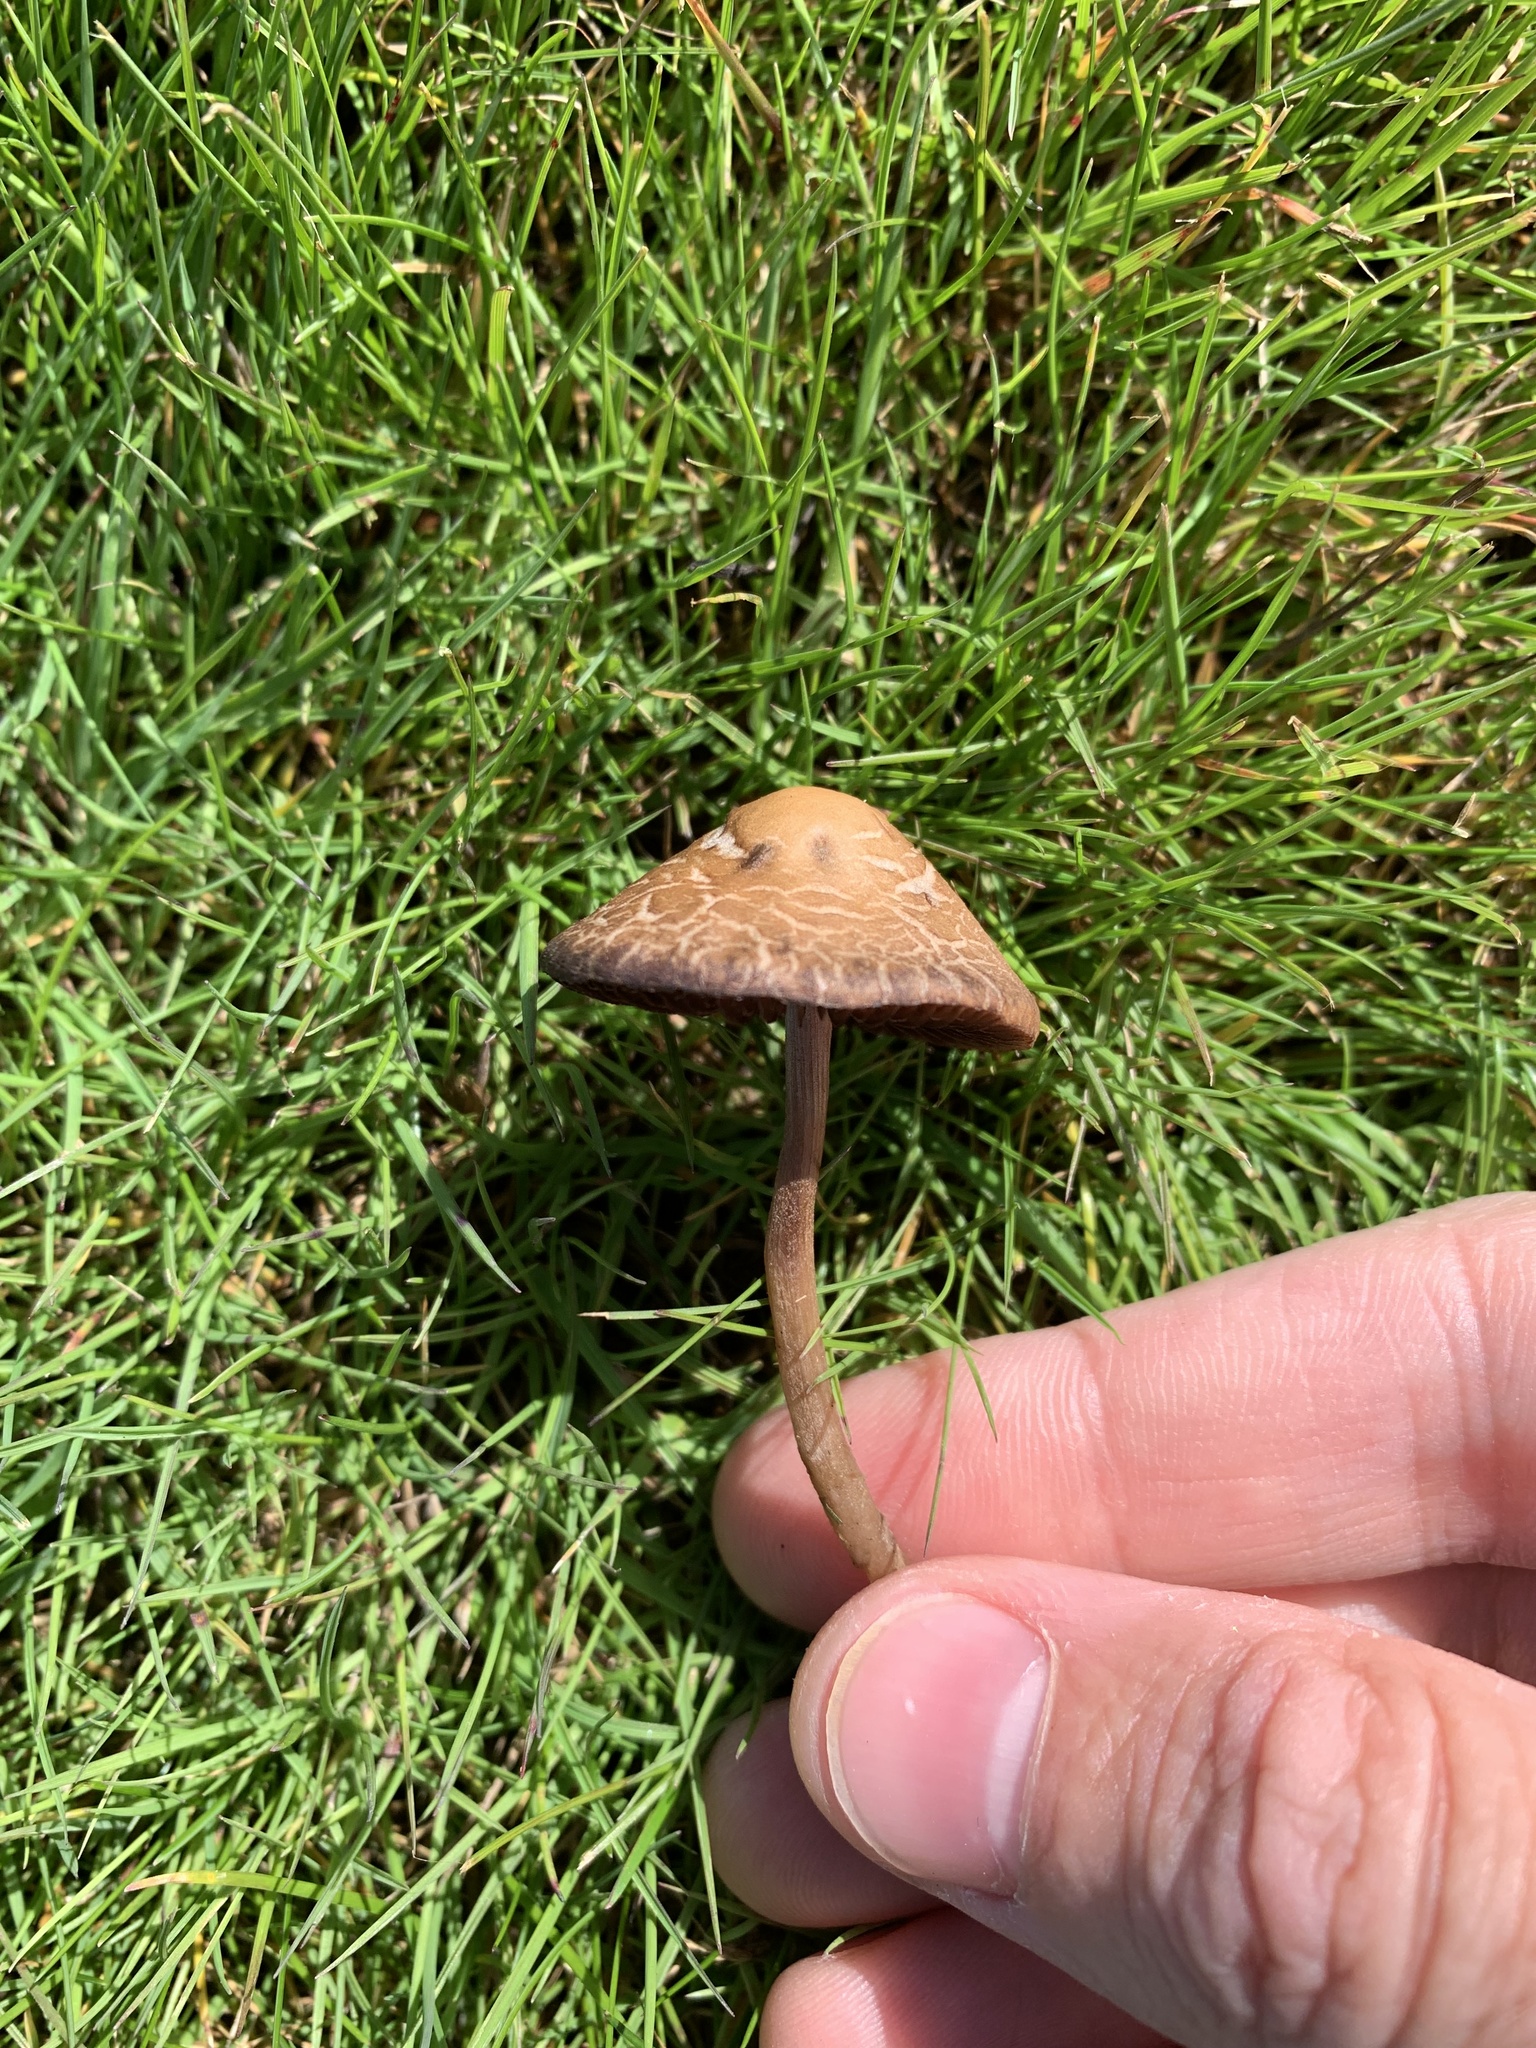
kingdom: Fungi
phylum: Basidiomycota
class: Agaricomycetes
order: Agaricales
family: Bolbitiaceae
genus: Panaeolina
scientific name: Panaeolina foenisecii
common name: Brown hay cap
